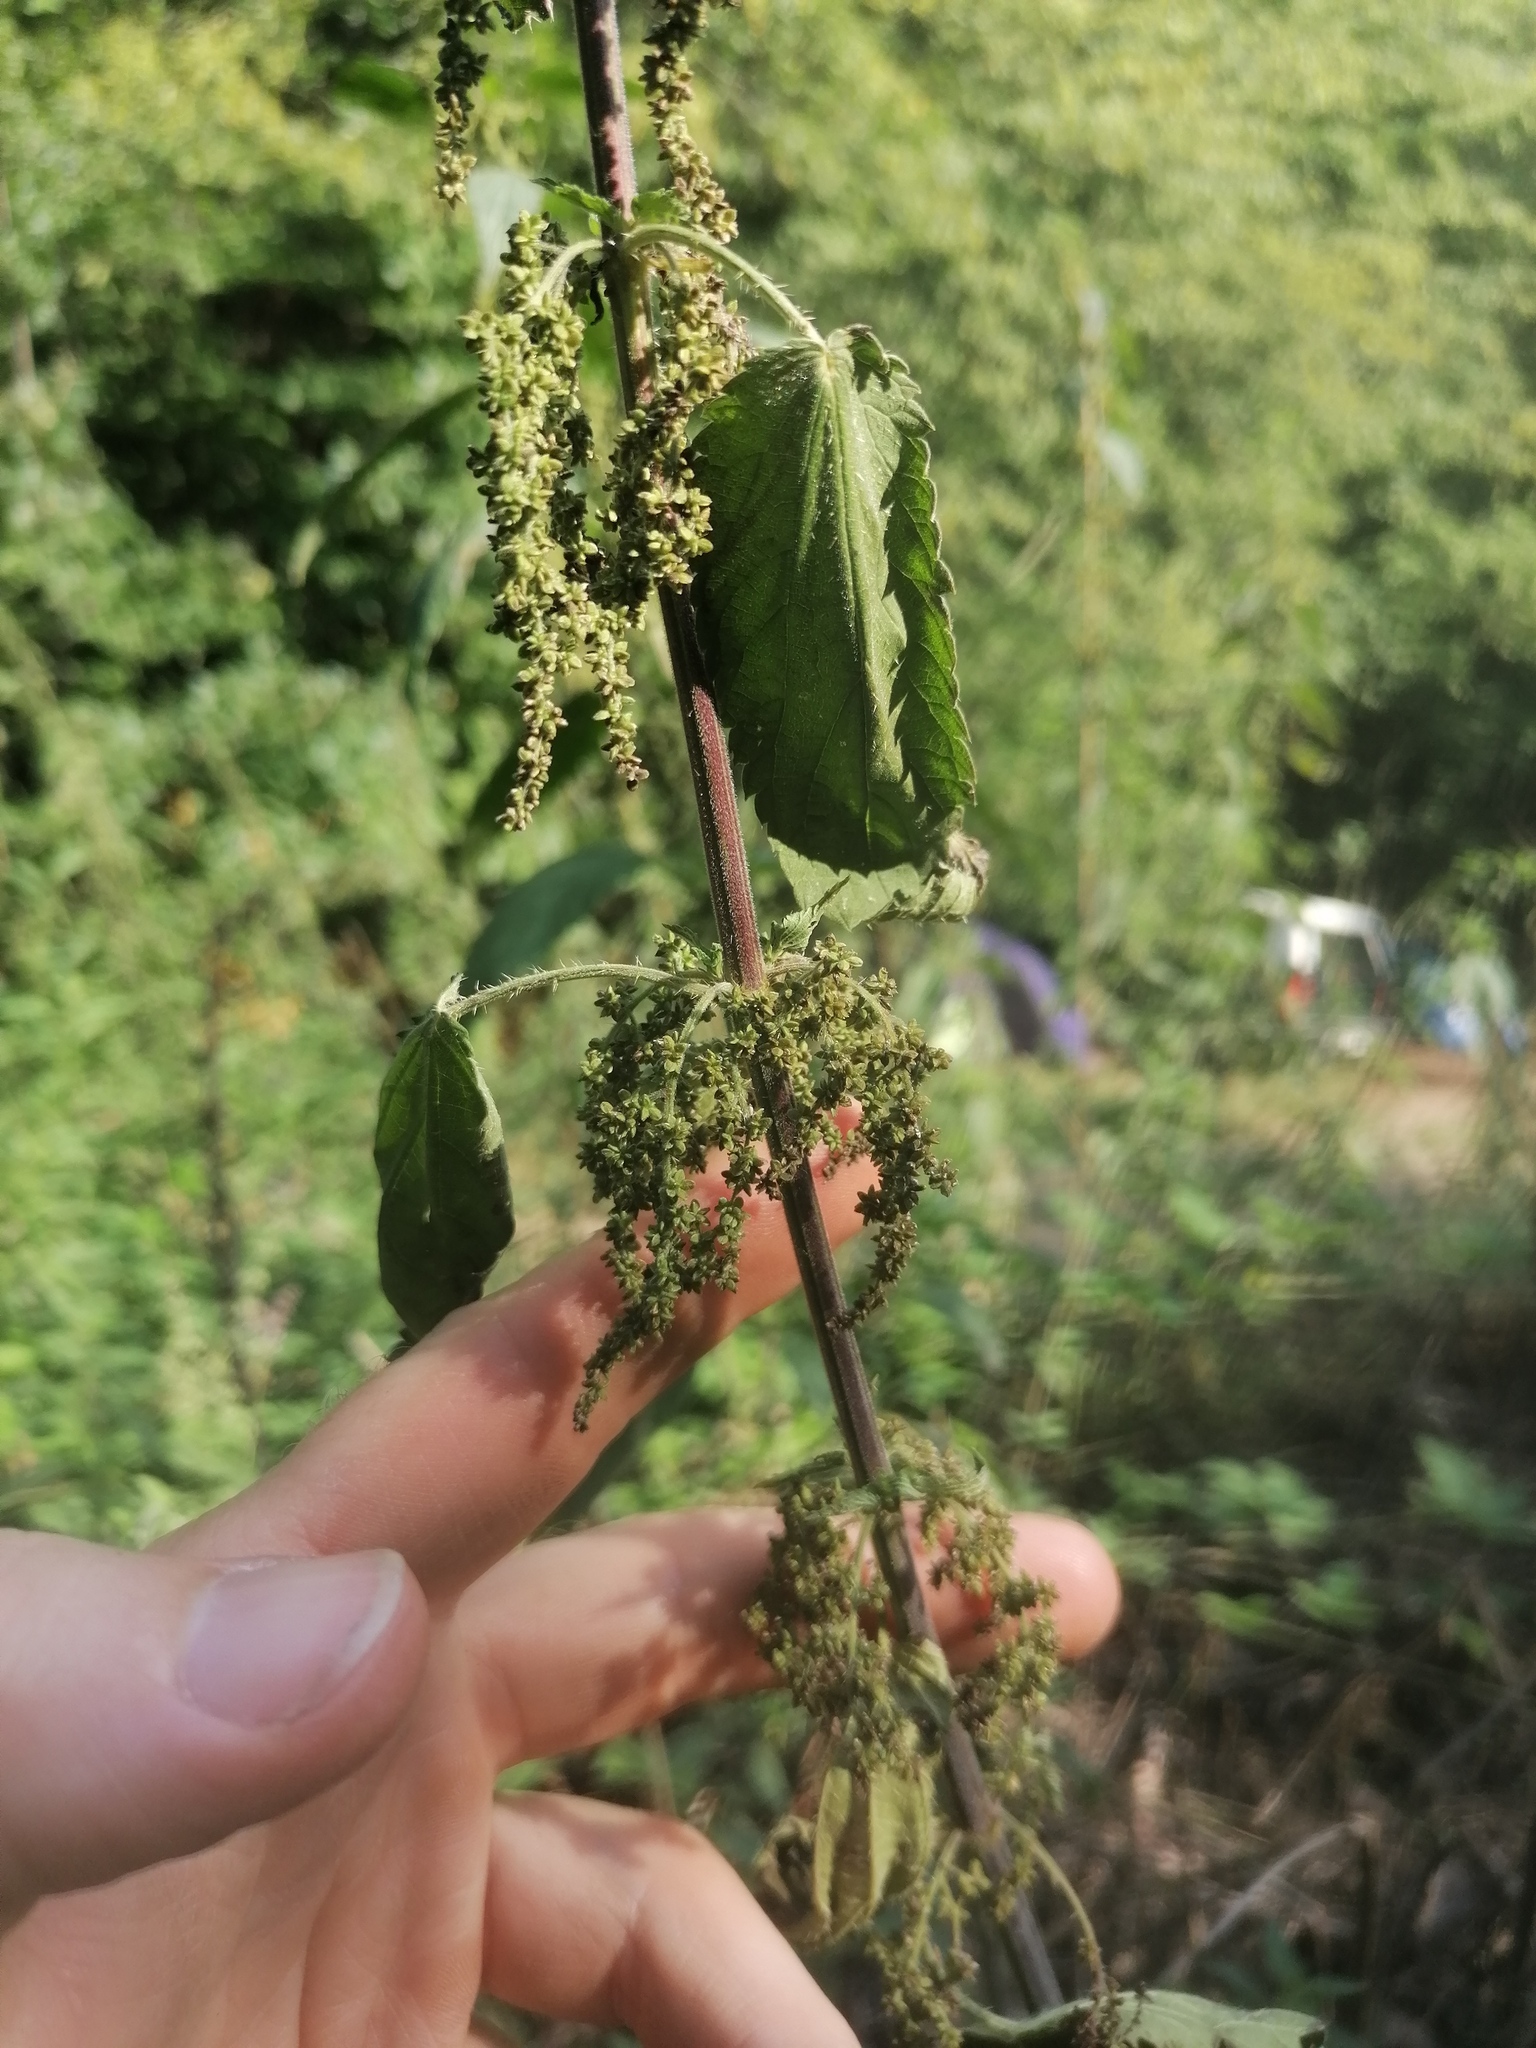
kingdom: Plantae
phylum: Tracheophyta
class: Magnoliopsida
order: Rosales
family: Urticaceae
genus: Urtica
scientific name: Urtica dioica
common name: Common nettle
